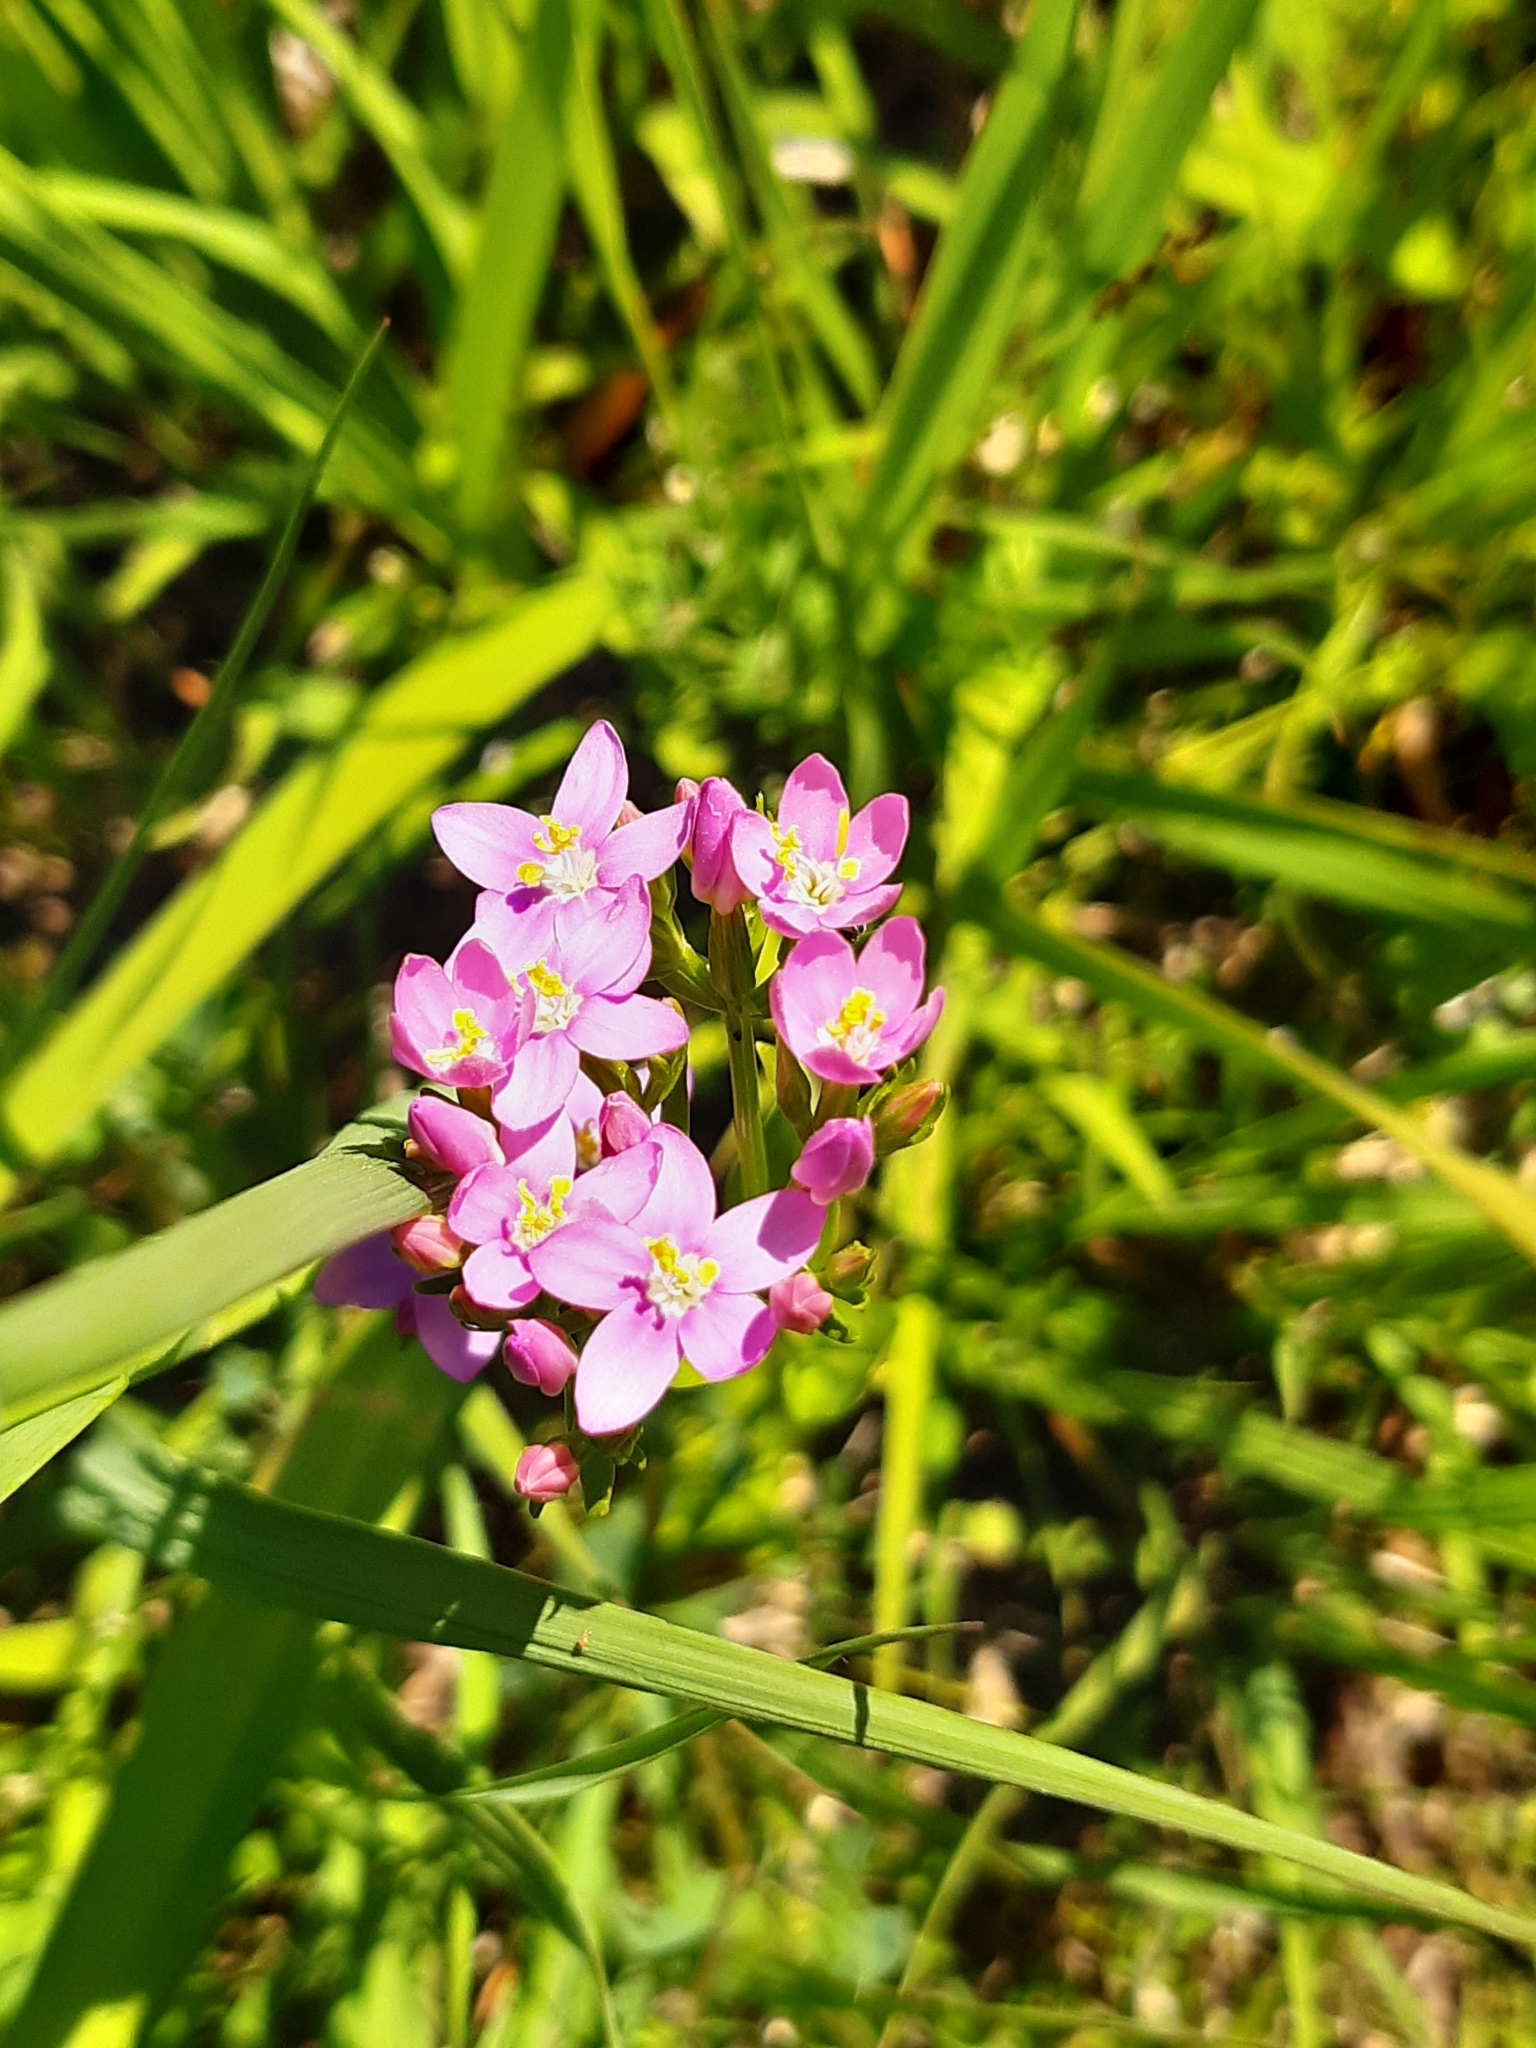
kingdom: Plantae
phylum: Tracheophyta
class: Magnoliopsida
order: Gentianales
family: Gentianaceae
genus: Centaurium
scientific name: Centaurium erythraea
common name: Common centaury
